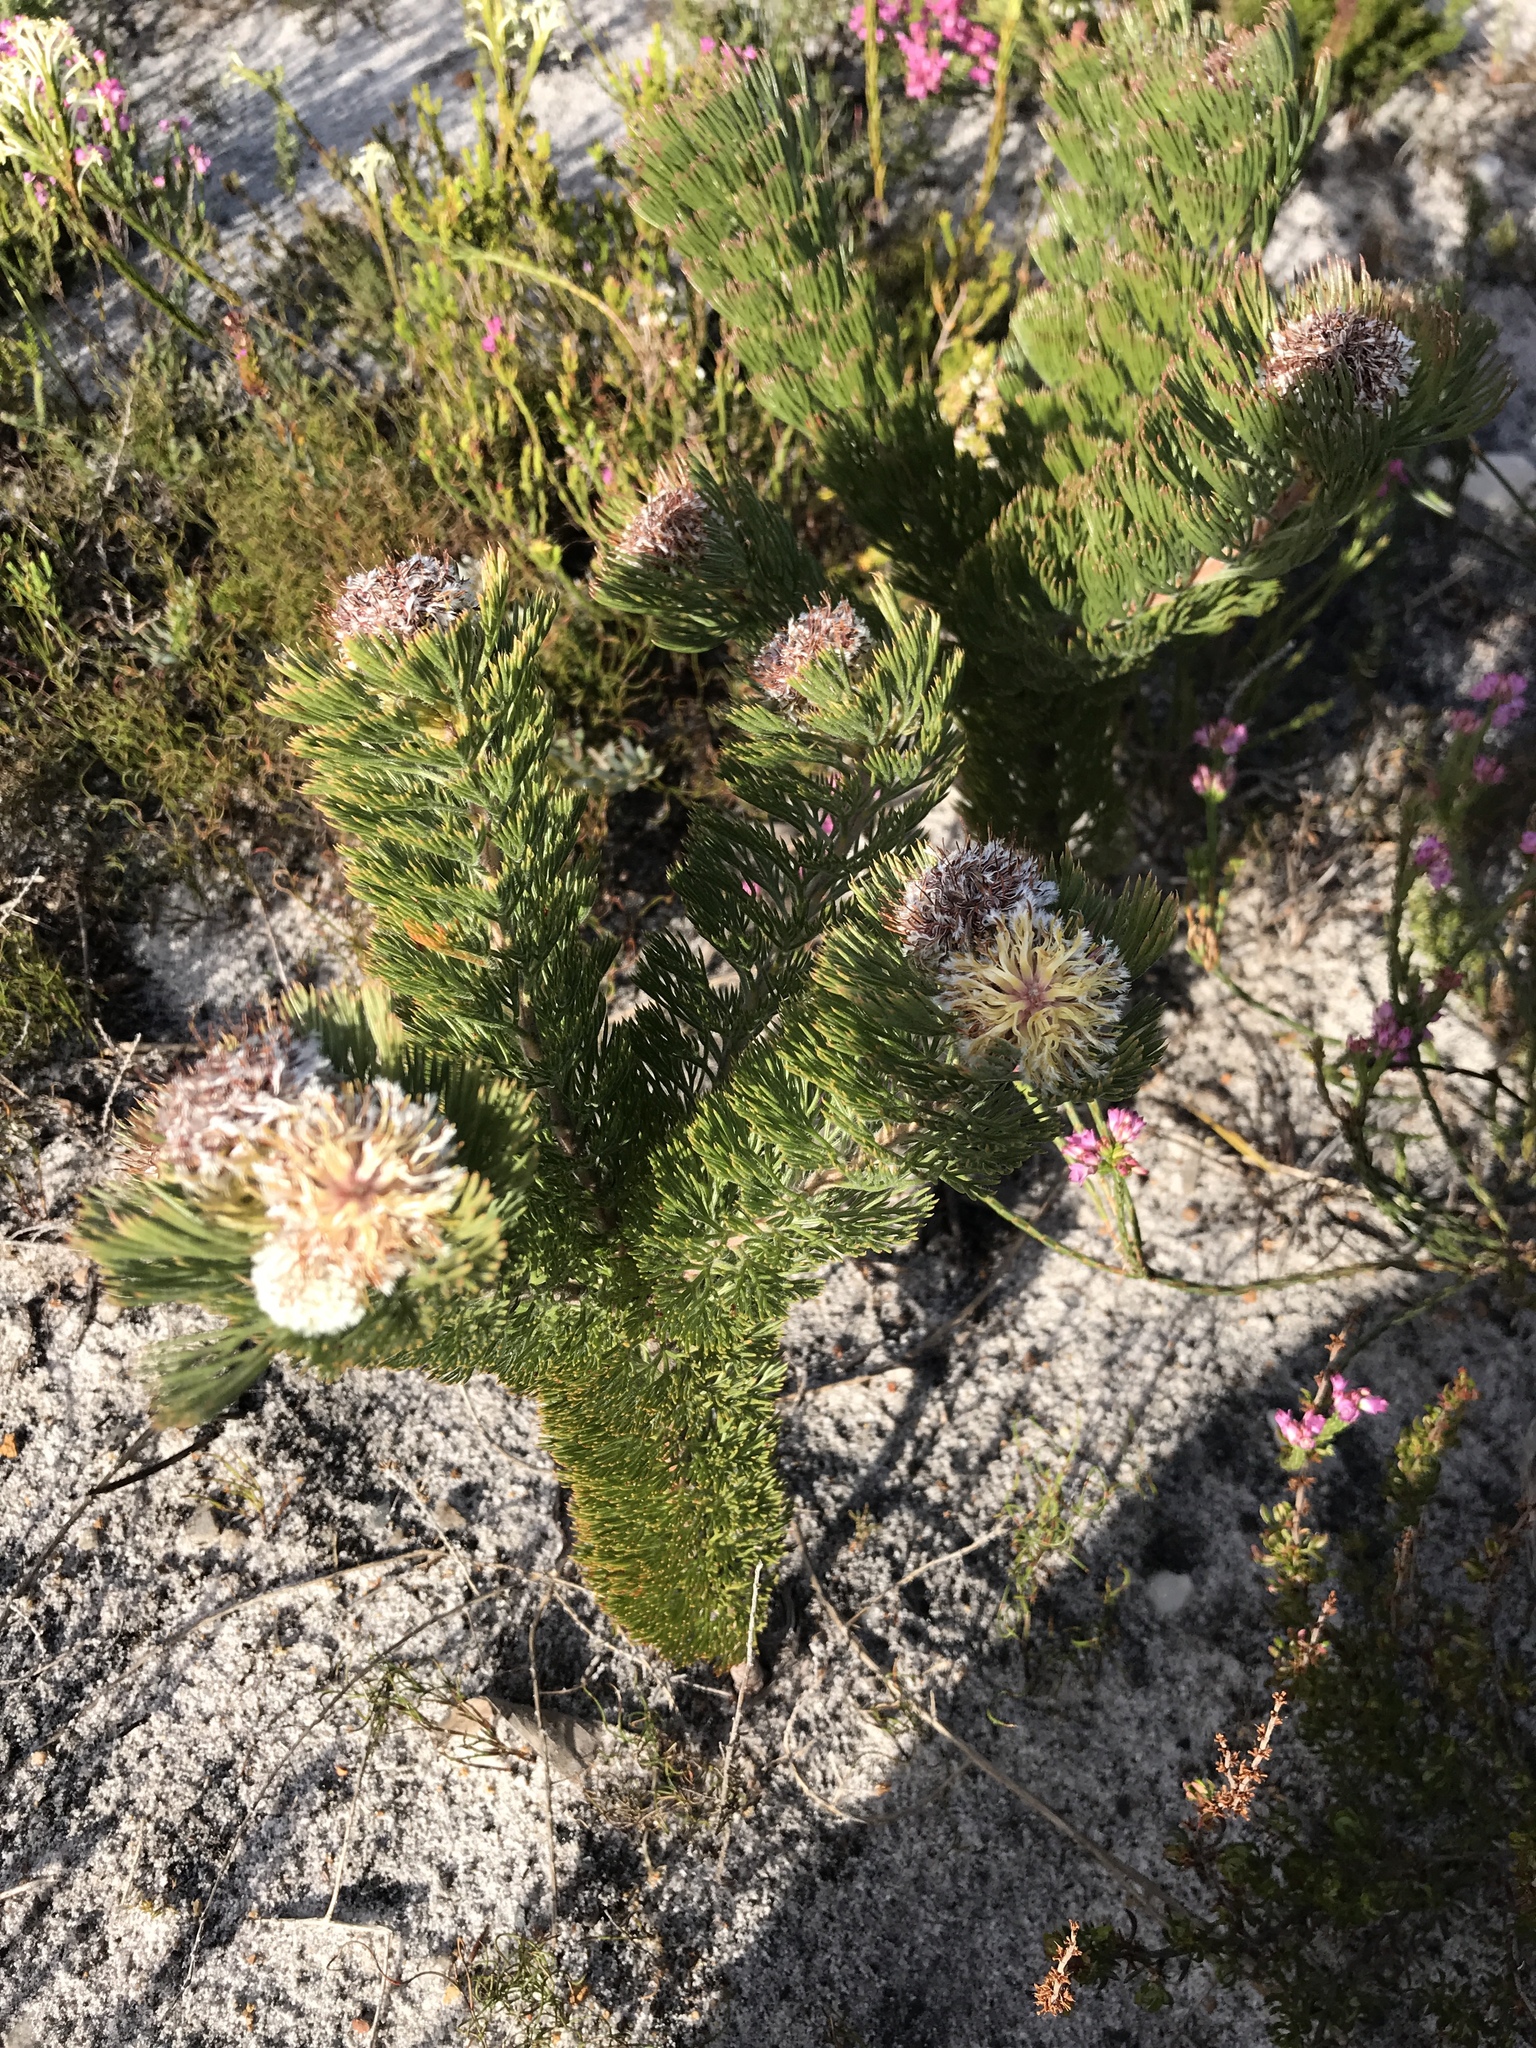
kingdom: Plantae
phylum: Tracheophyta
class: Magnoliopsida
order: Proteales
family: Proteaceae
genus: Serruria
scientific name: Serruria villosa
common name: Golden spiderhead
